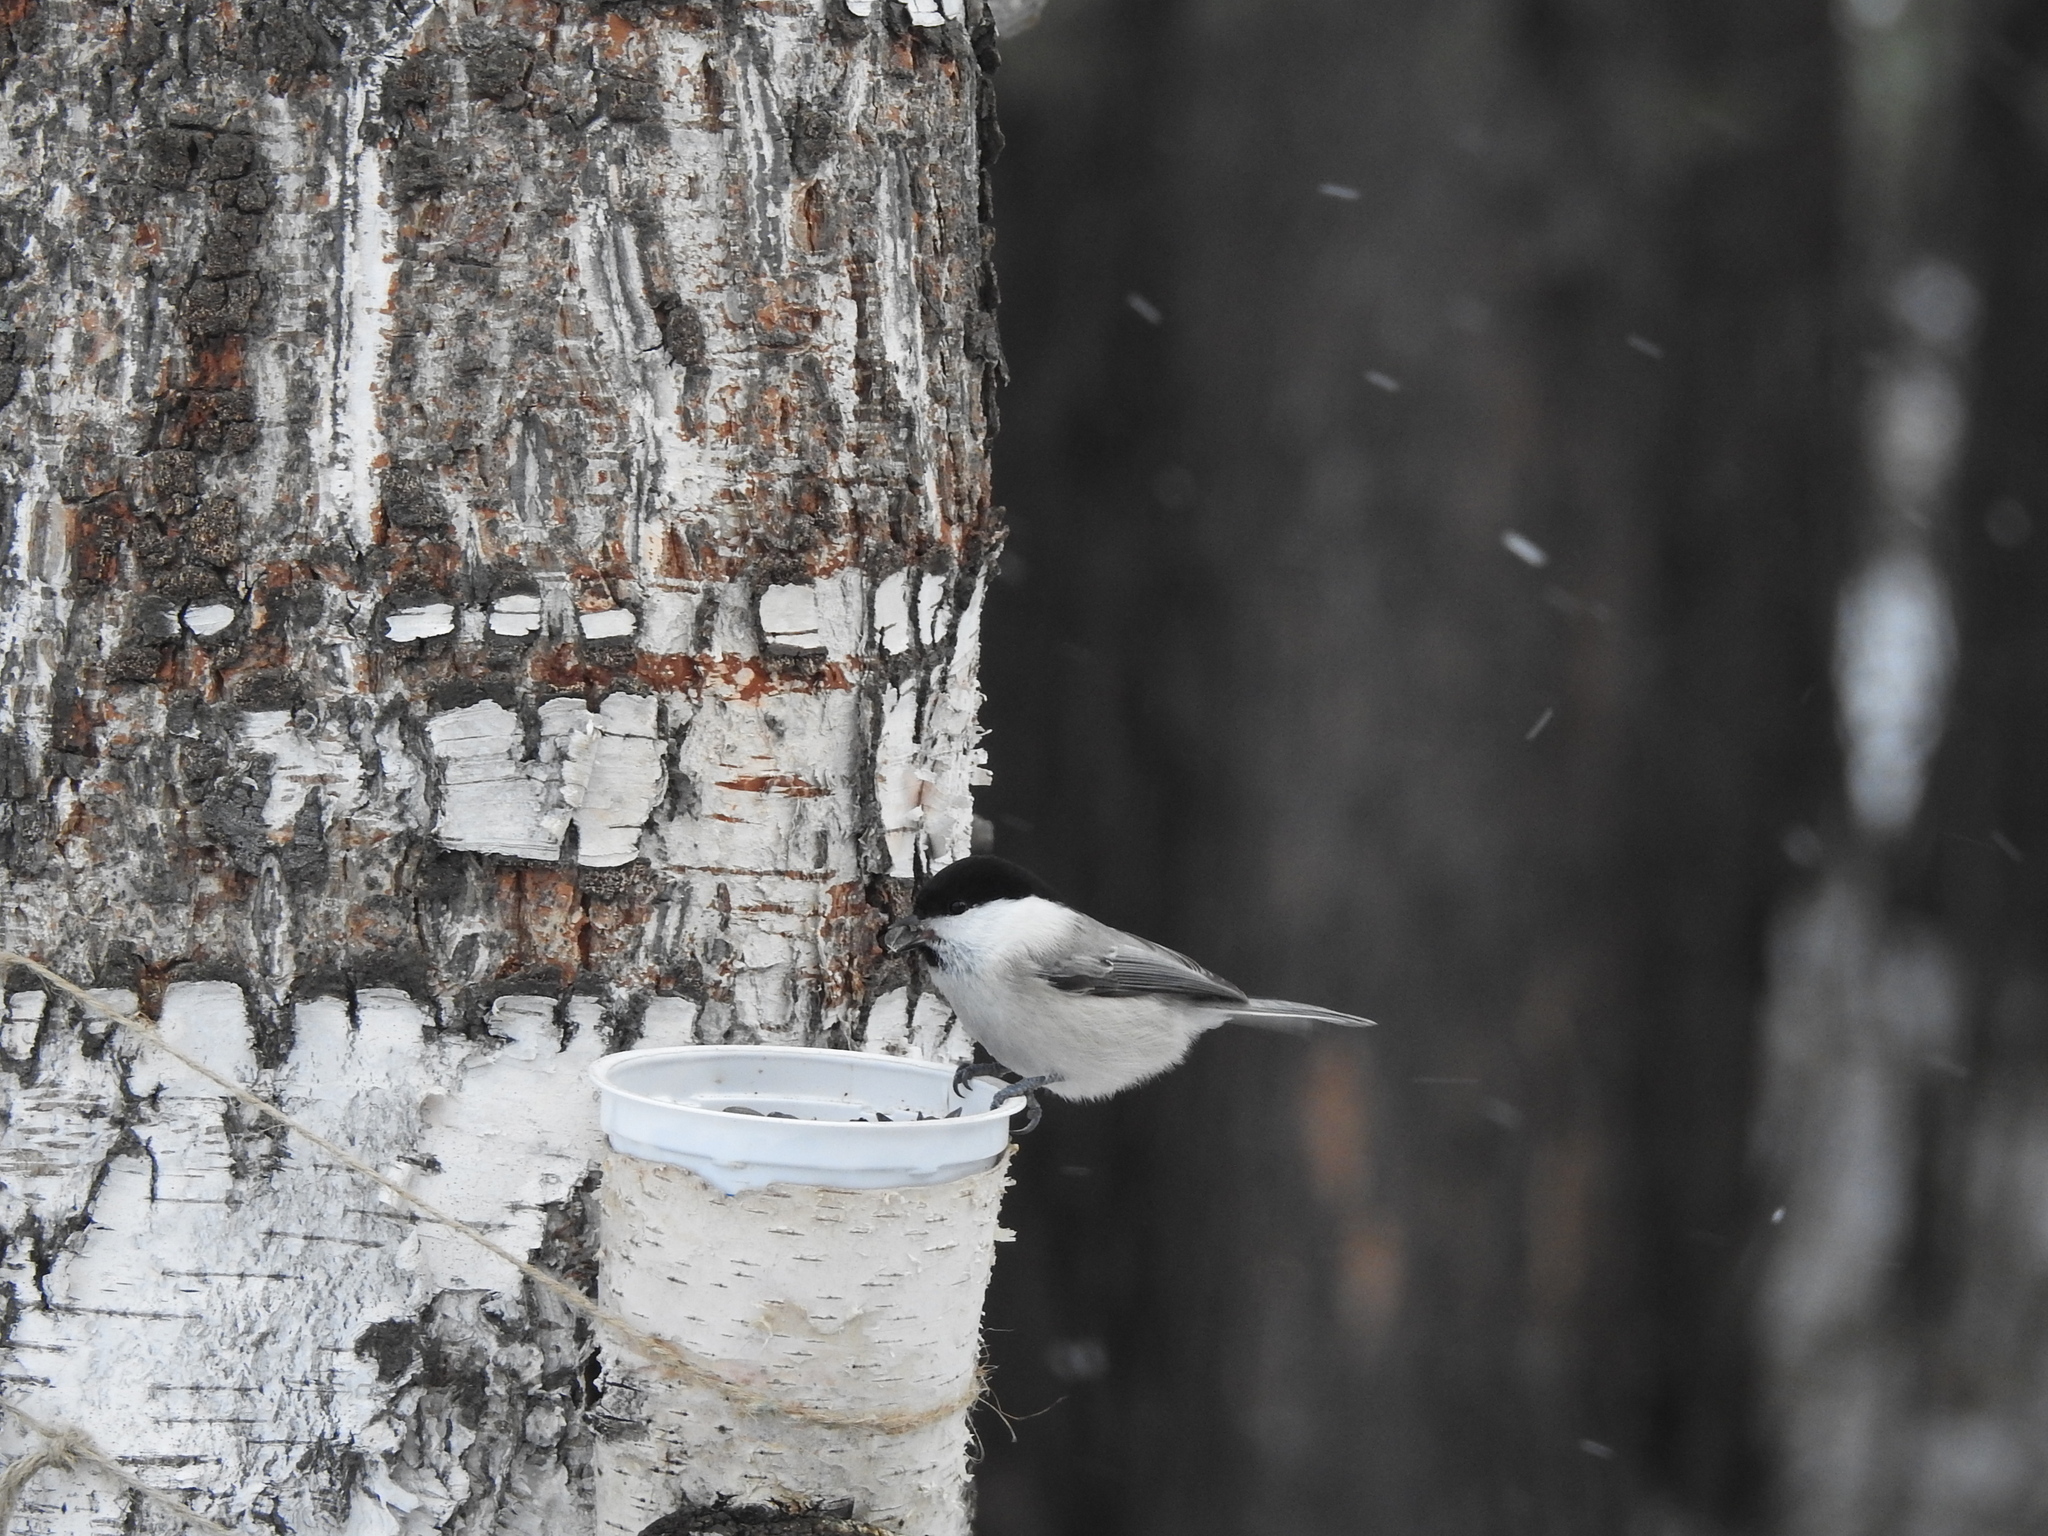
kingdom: Animalia
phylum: Chordata
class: Aves
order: Passeriformes
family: Paridae
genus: Poecile
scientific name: Poecile montanus
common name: Willow tit
